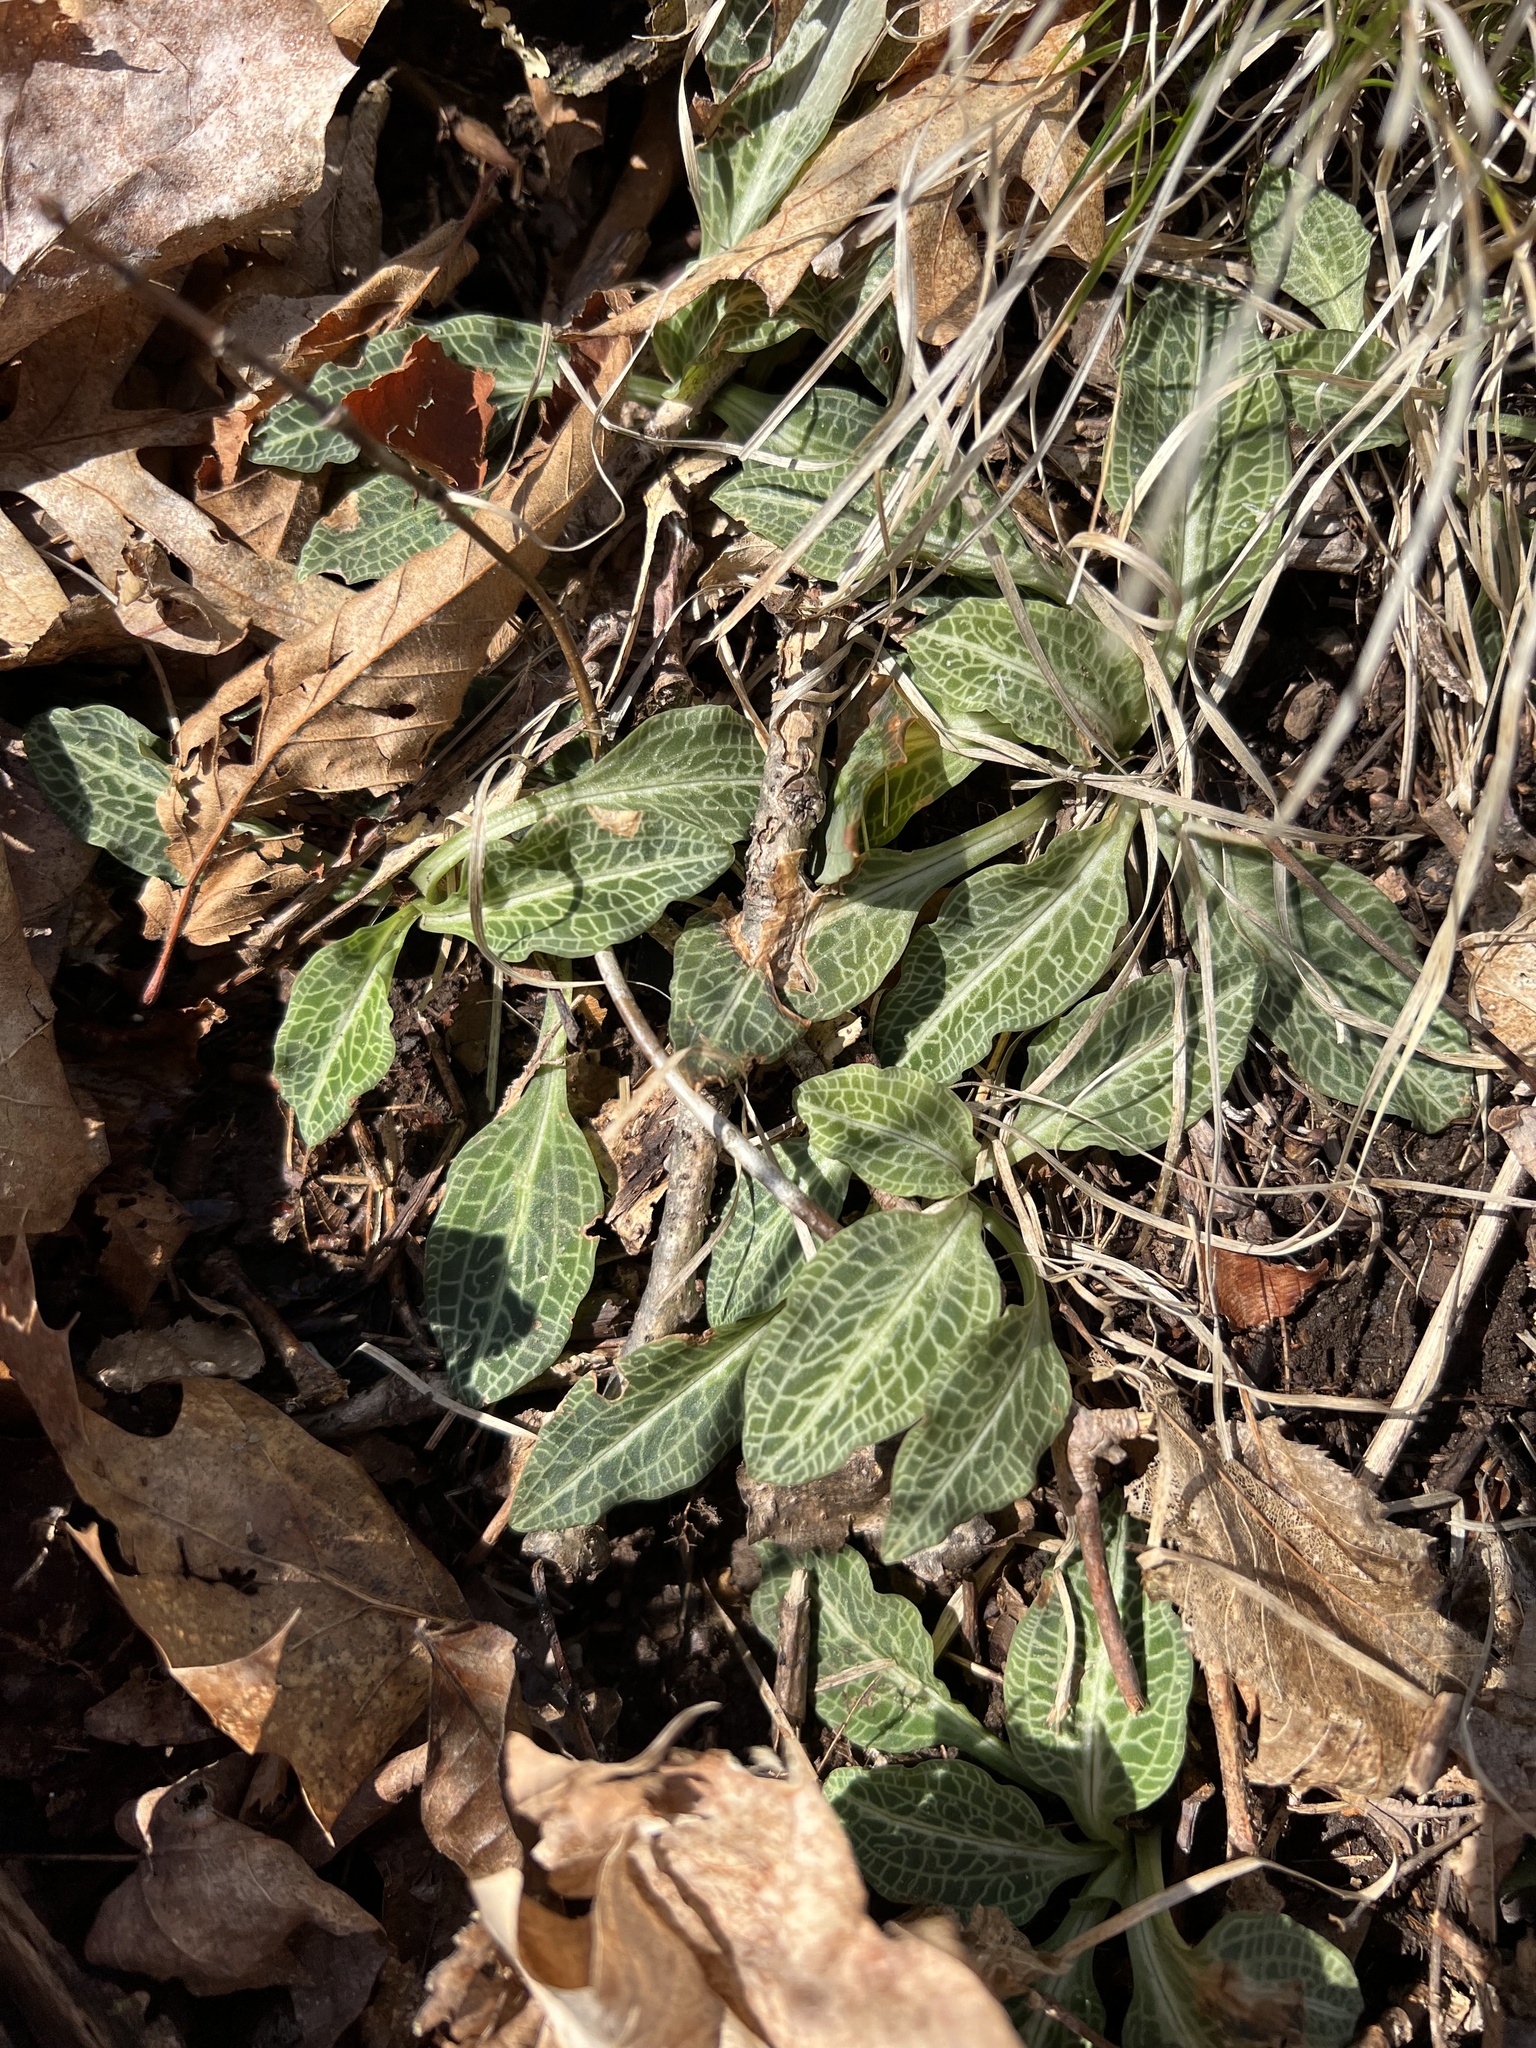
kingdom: Plantae
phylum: Tracheophyta
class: Liliopsida
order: Asparagales
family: Orchidaceae
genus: Goodyera
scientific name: Goodyera pubescens
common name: Downy rattlesnake-plantain
